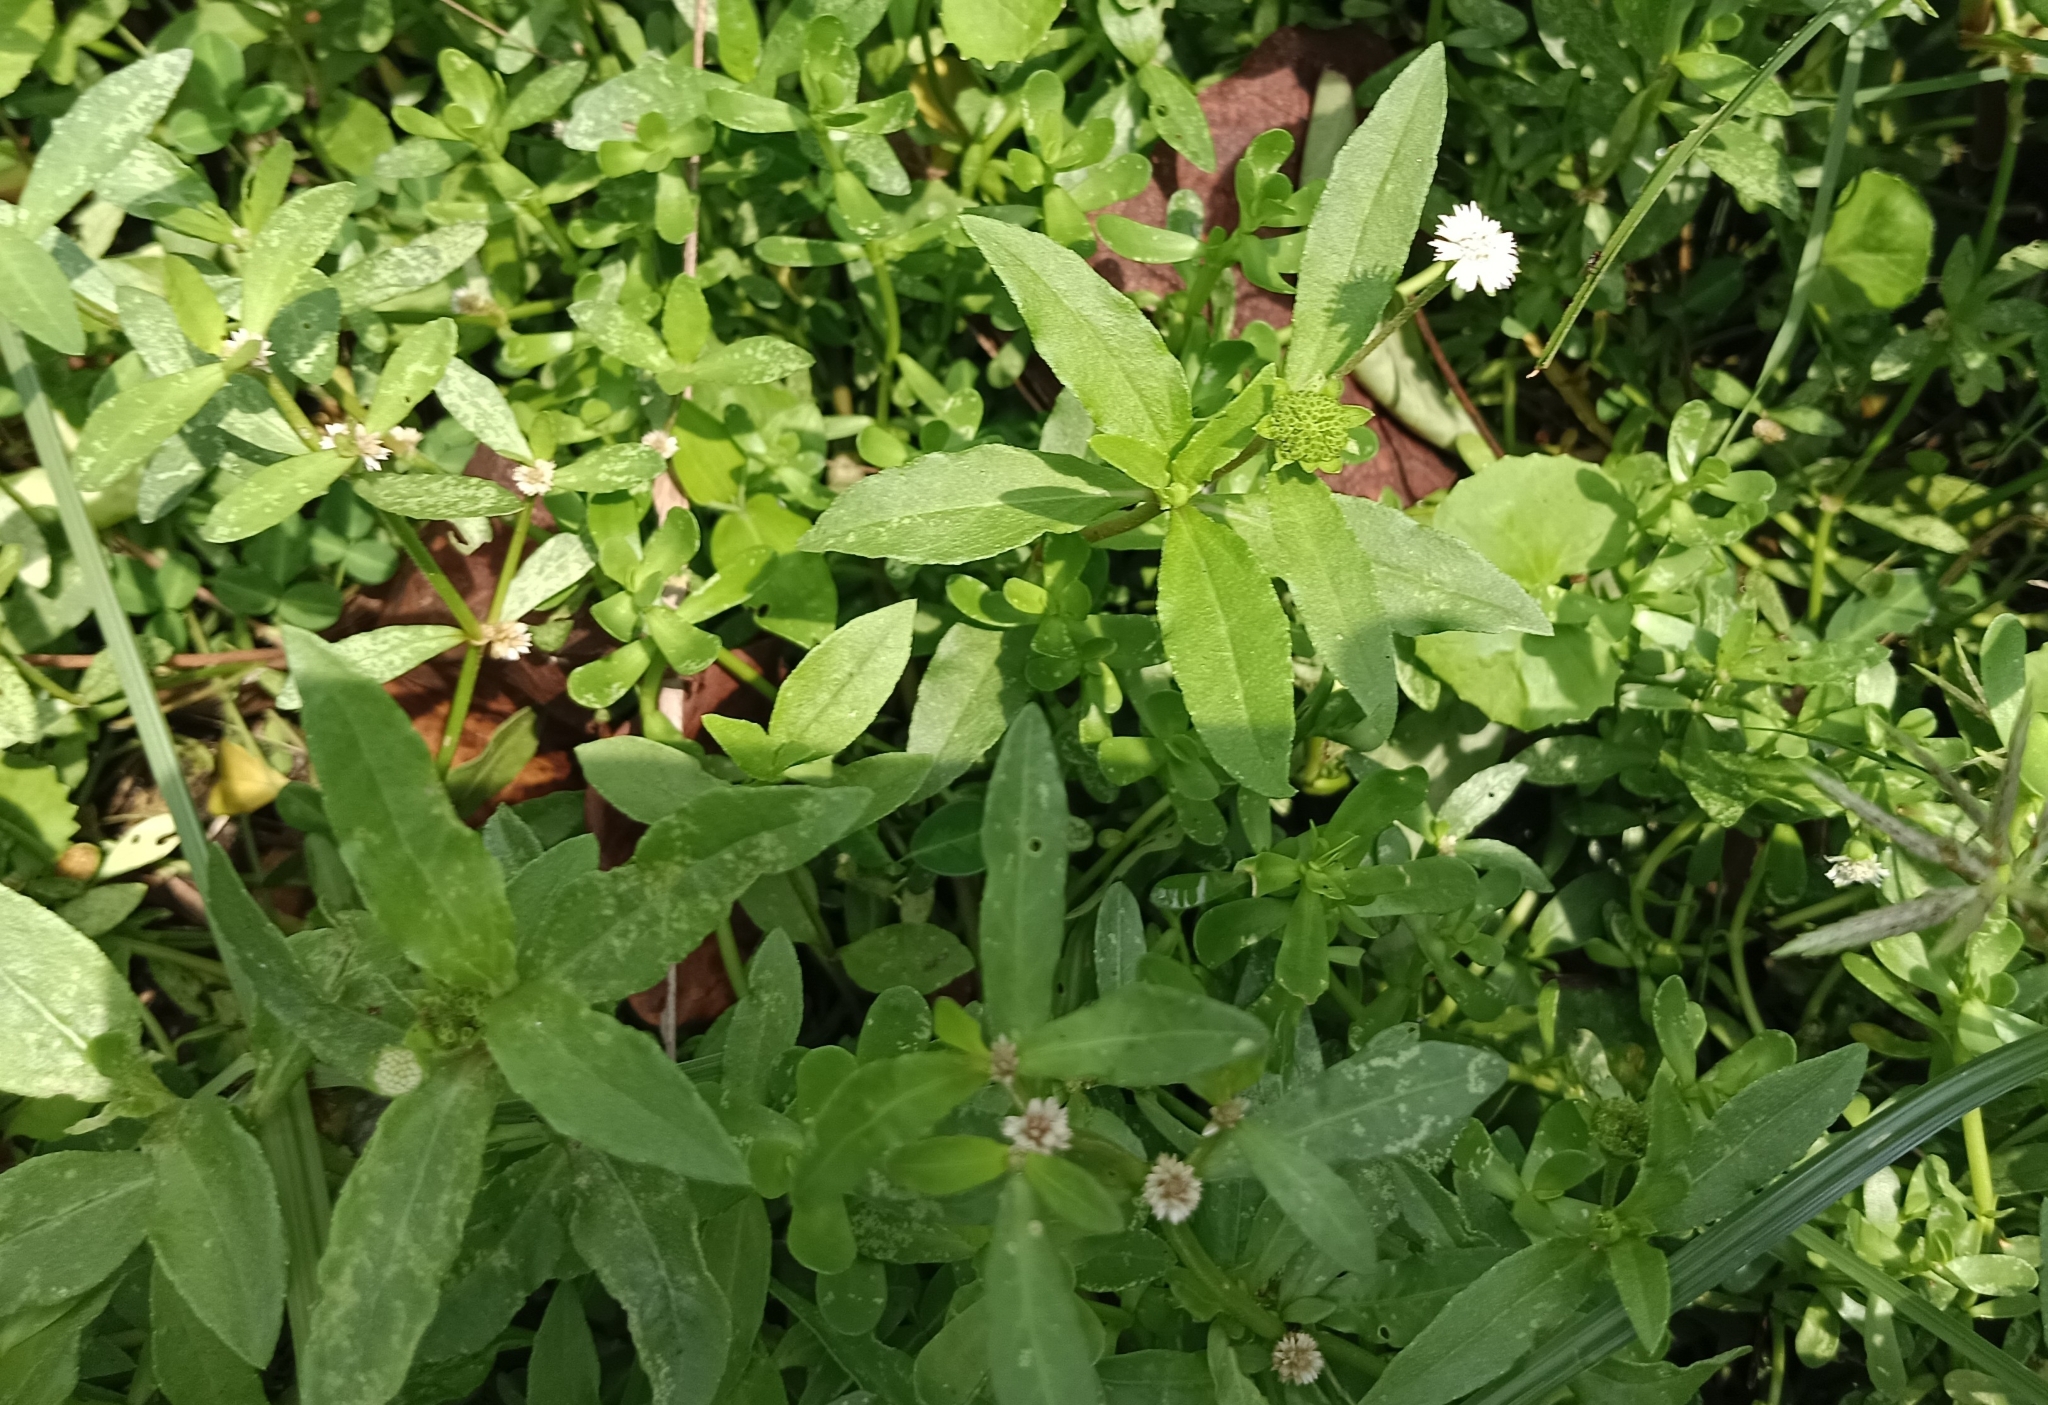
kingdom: Plantae
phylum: Tracheophyta
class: Magnoliopsida
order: Asterales
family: Asteraceae
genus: Eclipta
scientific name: Eclipta prostrata
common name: False daisy
